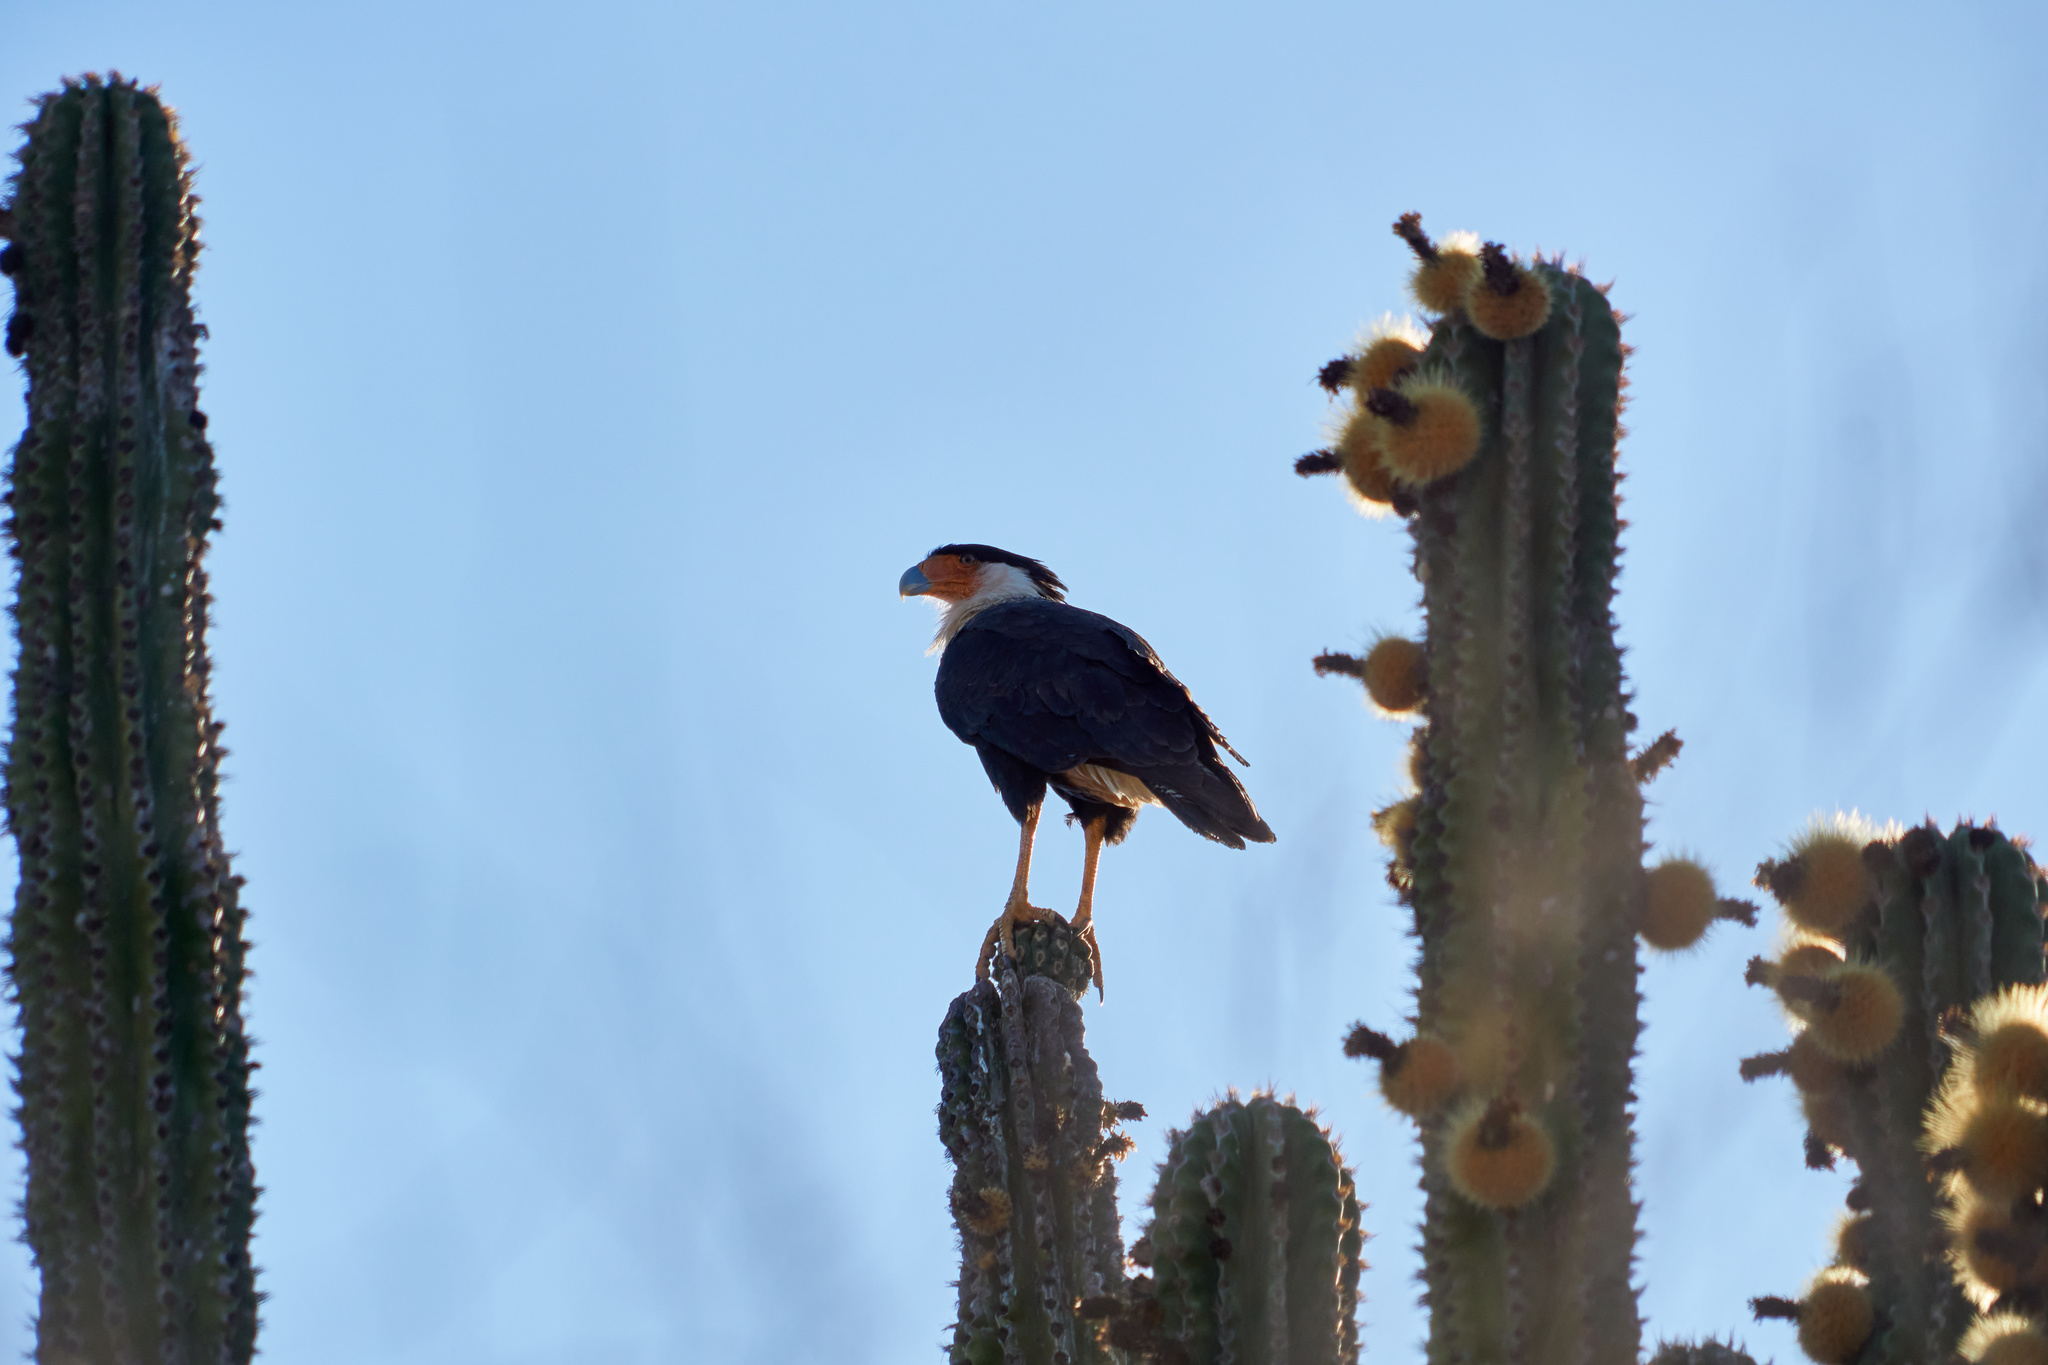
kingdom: Animalia
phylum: Chordata
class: Aves
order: Falconiformes
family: Falconidae
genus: Caracara
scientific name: Caracara plancus
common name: Southern caracara
